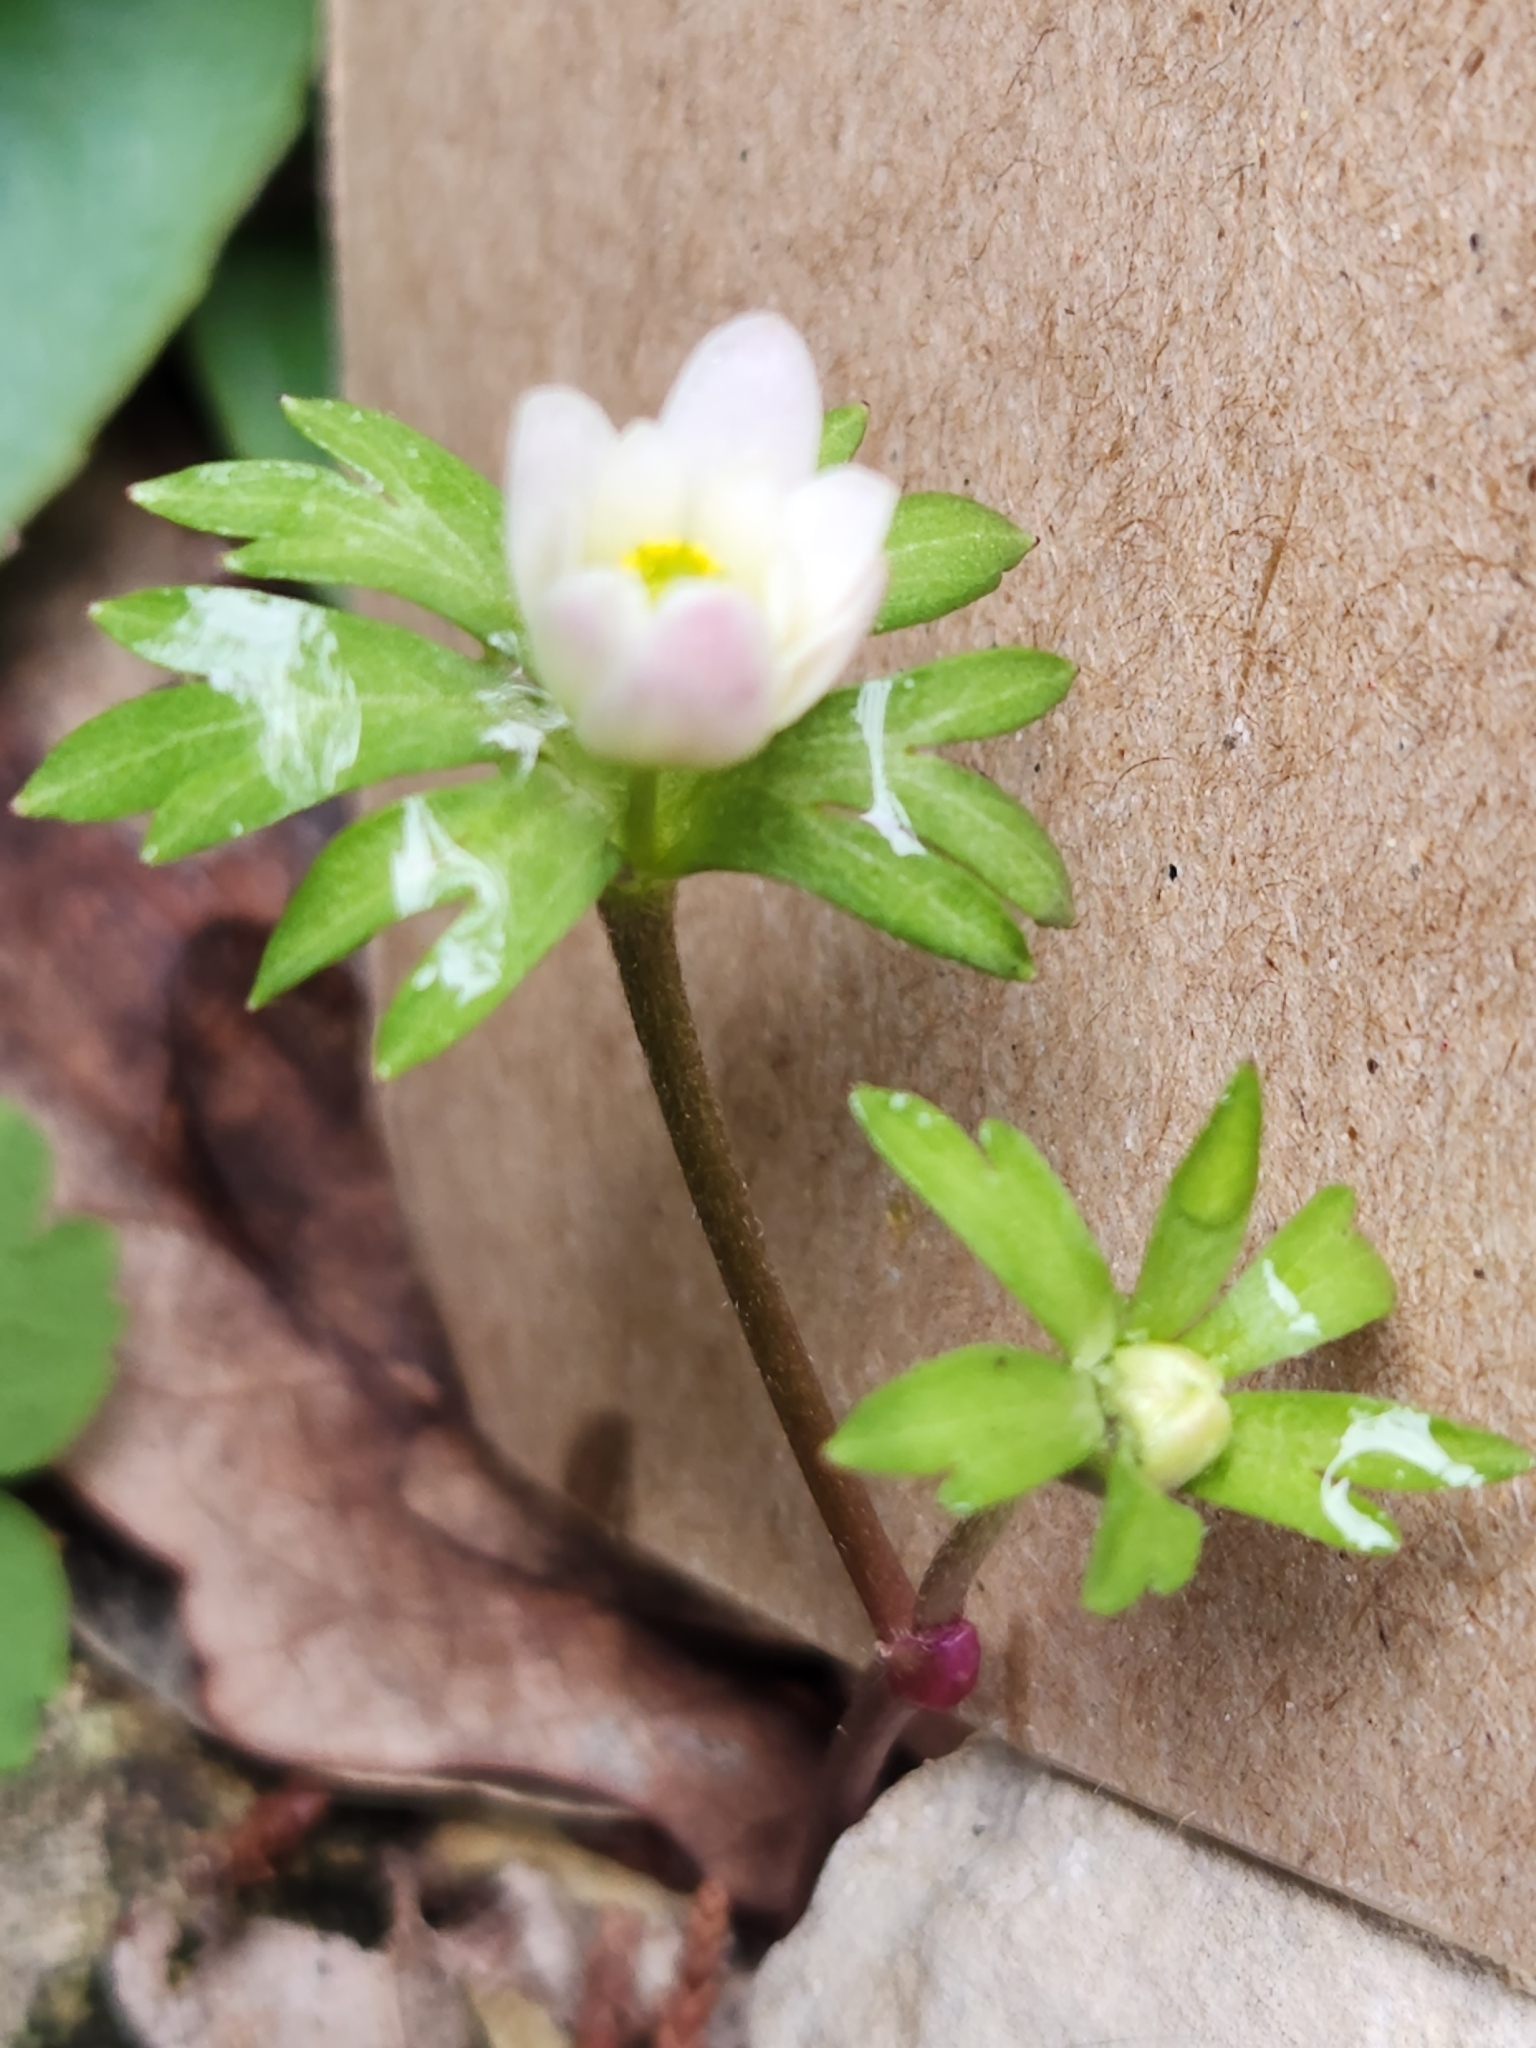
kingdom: Plantae
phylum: Tracheophyta
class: Magnoliopsida
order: Ranunculales
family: Ranunculaceae
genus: Anemone
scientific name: Anemone edwardsiana
